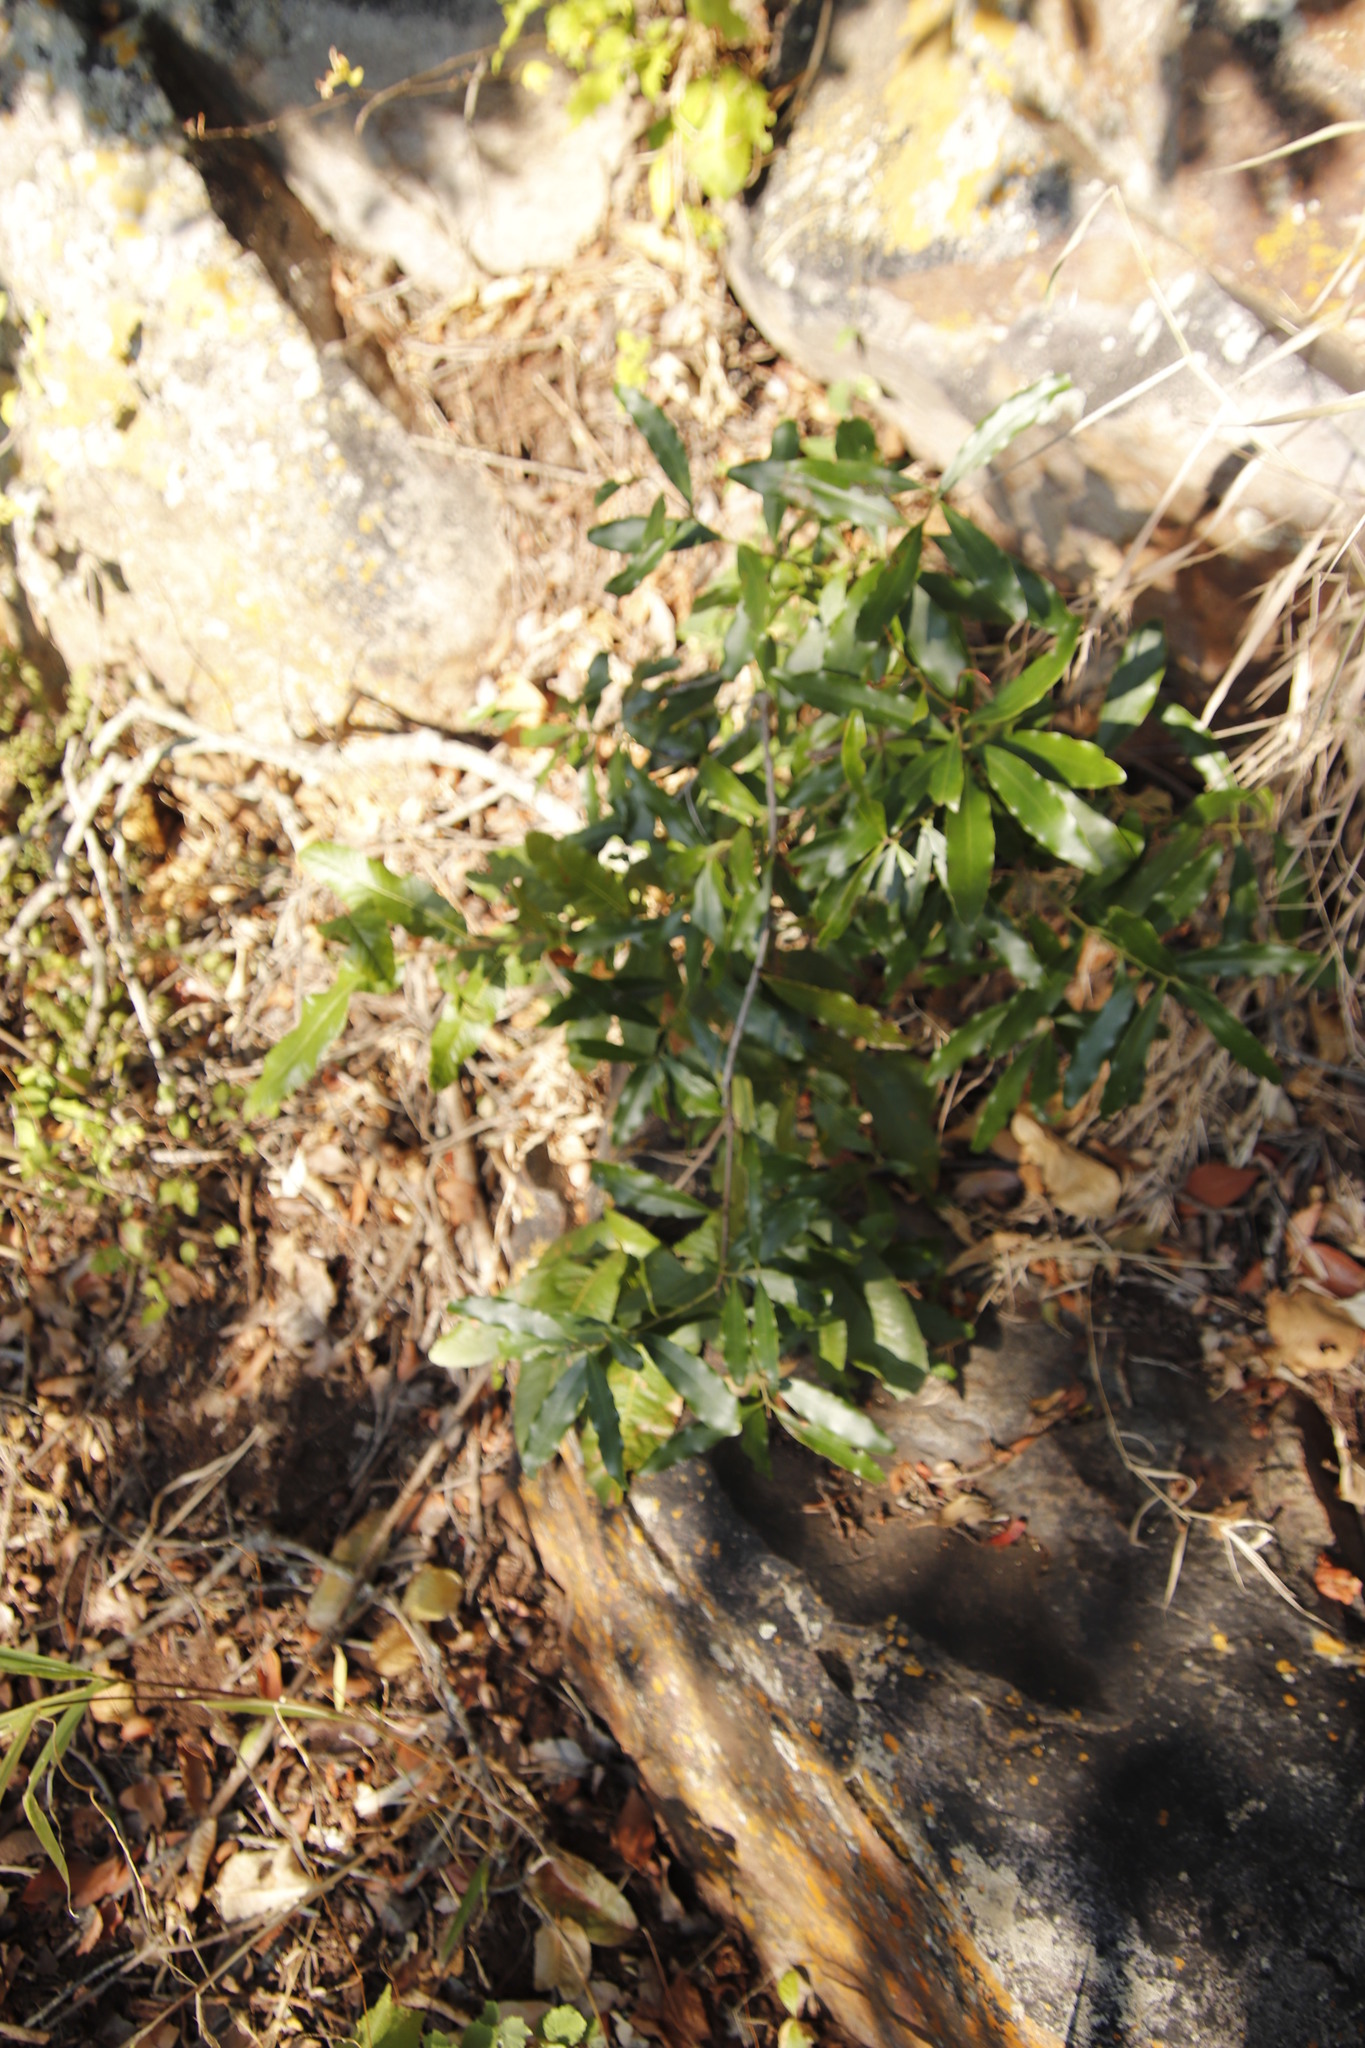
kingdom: Plantae
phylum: Tracheophyta
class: Magnoliopsida
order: Sapindales
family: Sapindaceae
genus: Pappea
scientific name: Pappea capensis
